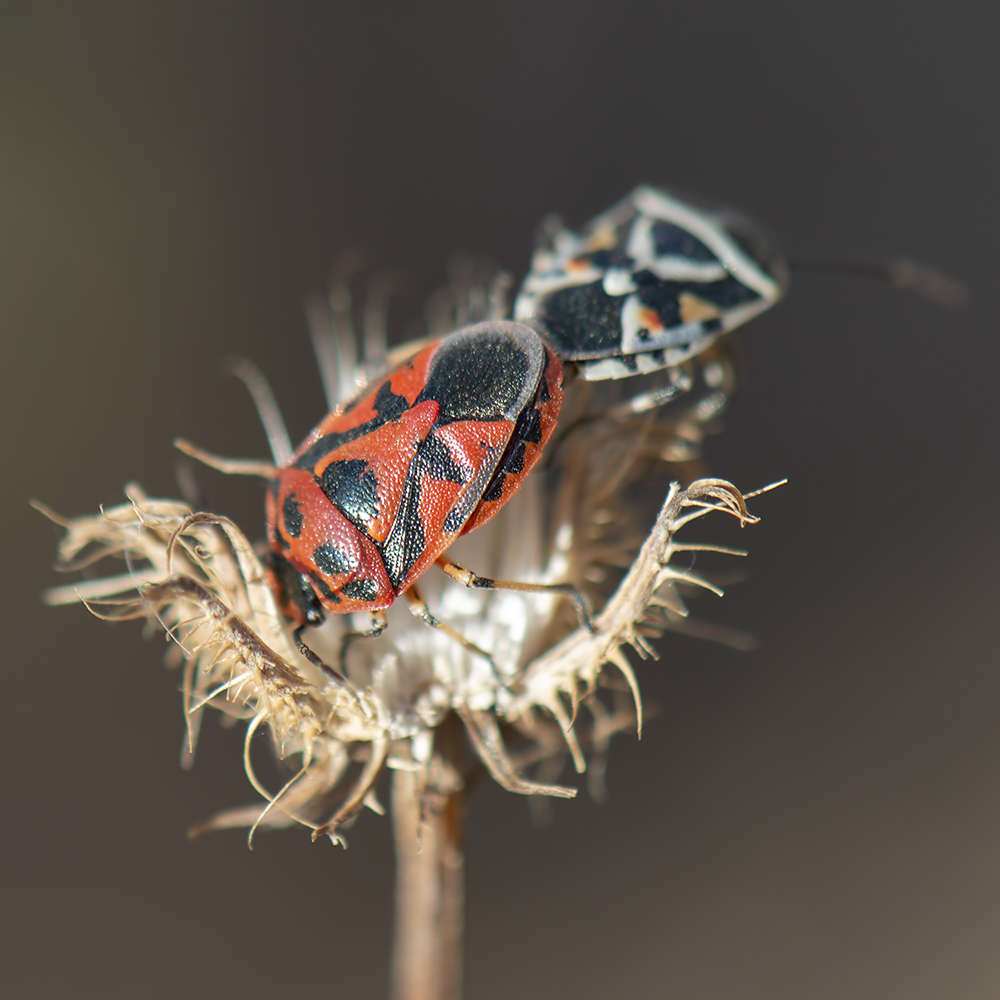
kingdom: Animalia
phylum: Arthropoda
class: Insecta
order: Hemiptera
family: Pentatomidae
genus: Eurydema
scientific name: Eurydema ornata
